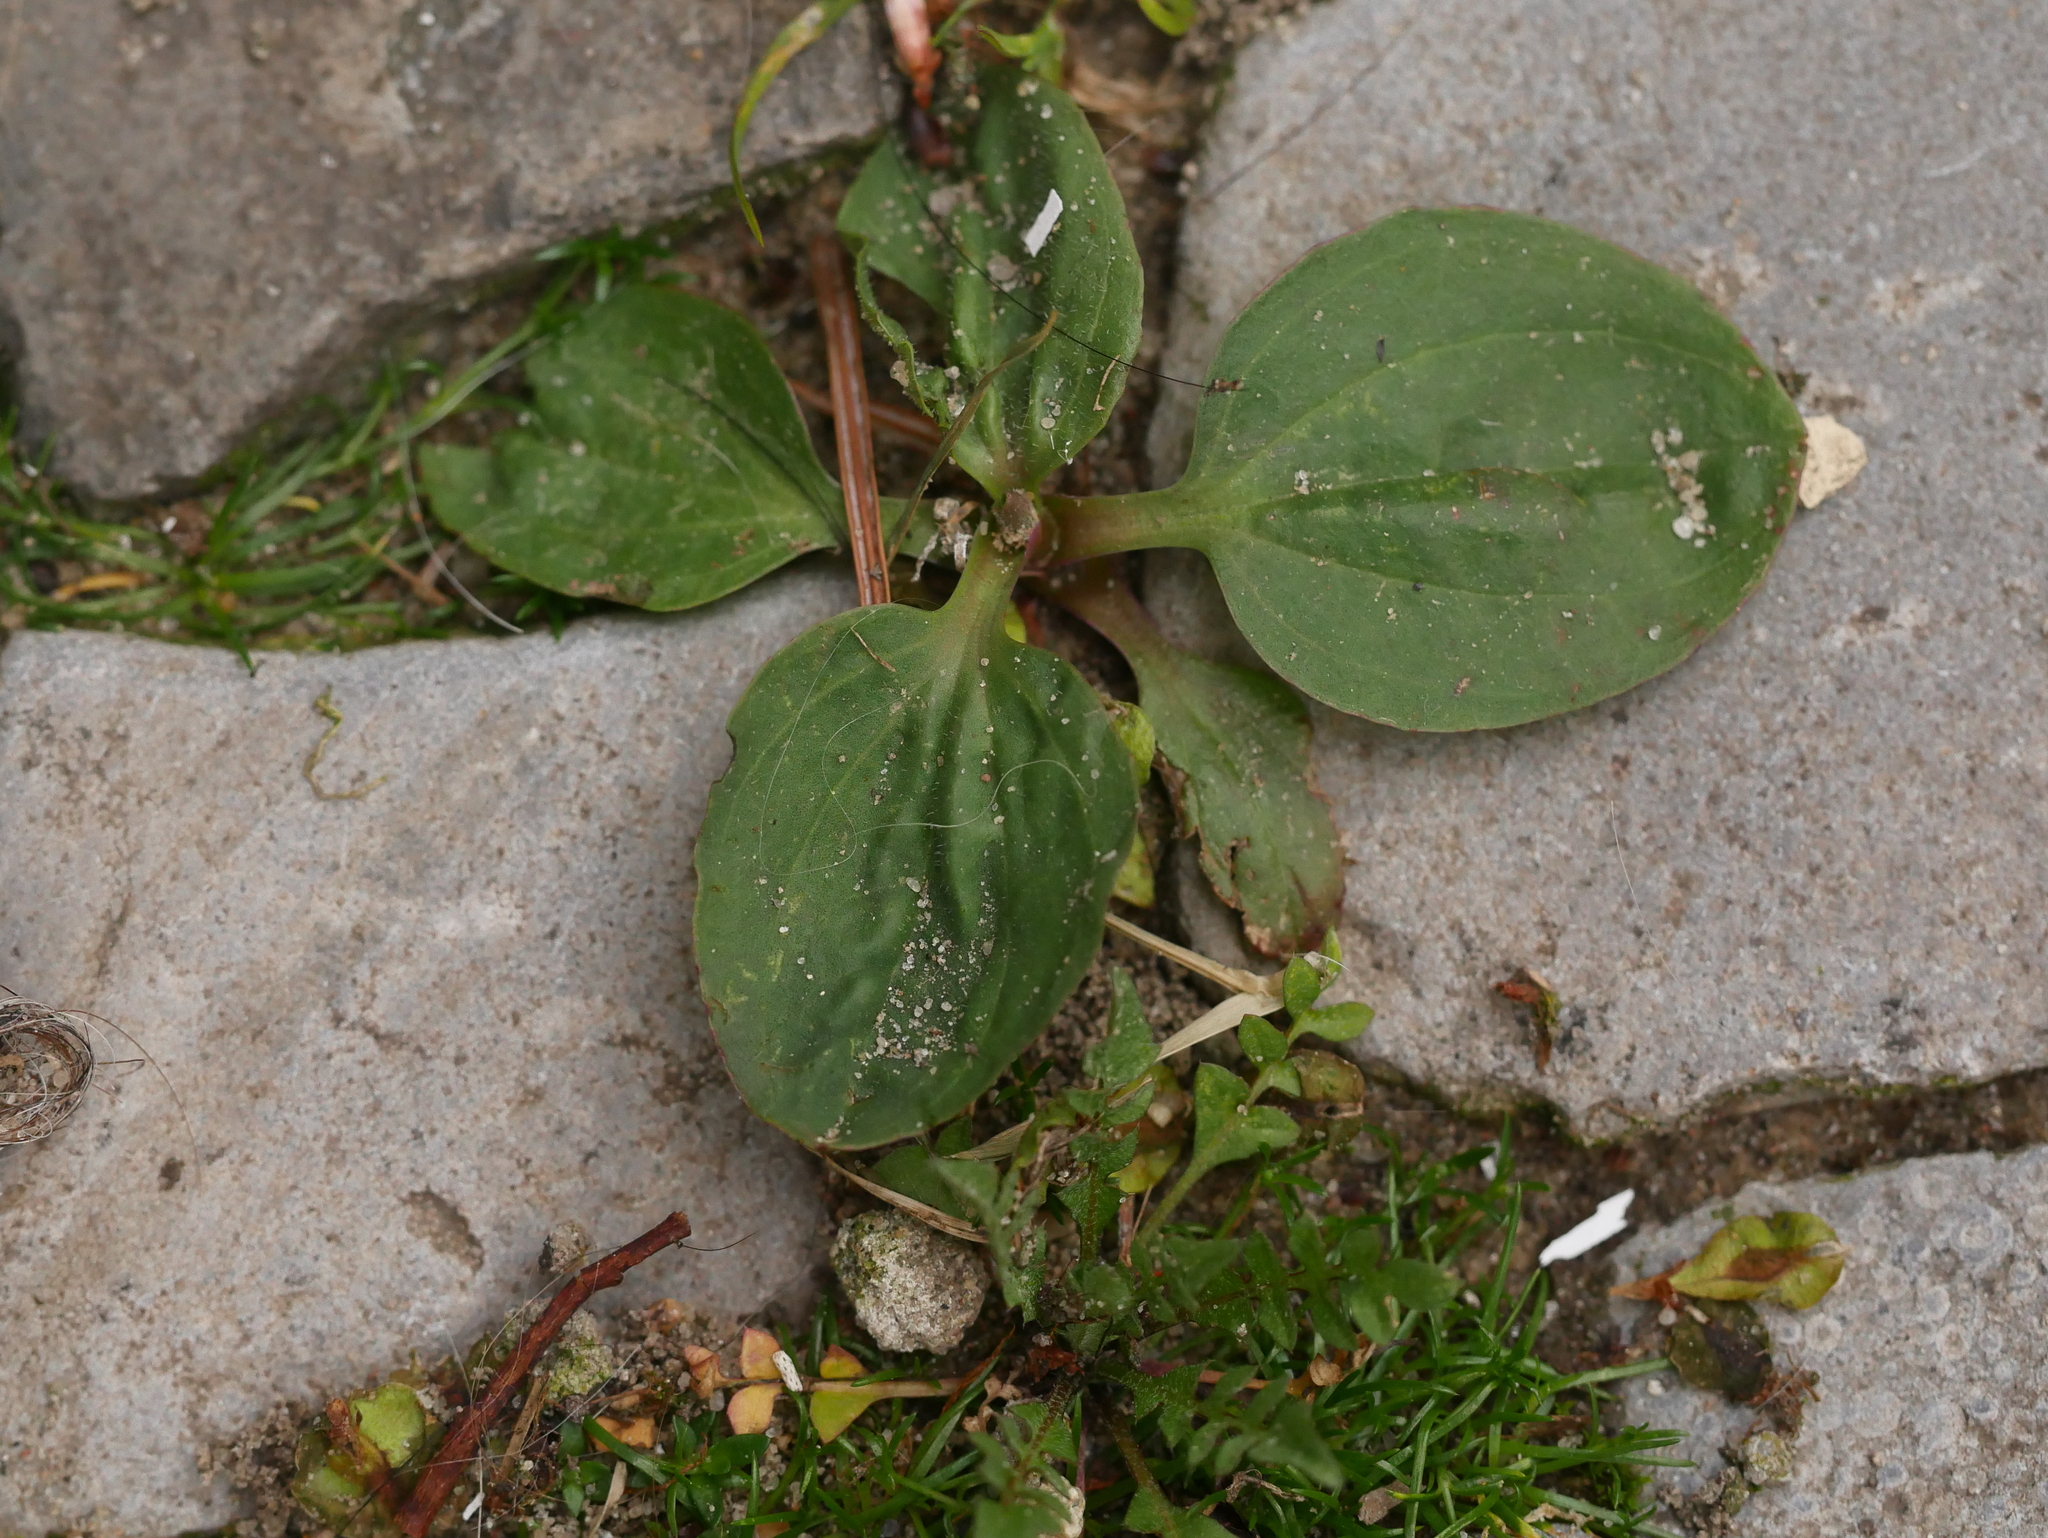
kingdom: Plantae
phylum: Tracheophyta
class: Magnoliopsida
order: Lamiales
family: Plantaginaceae
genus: Plantago
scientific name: Plantago major
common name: Common plantain
